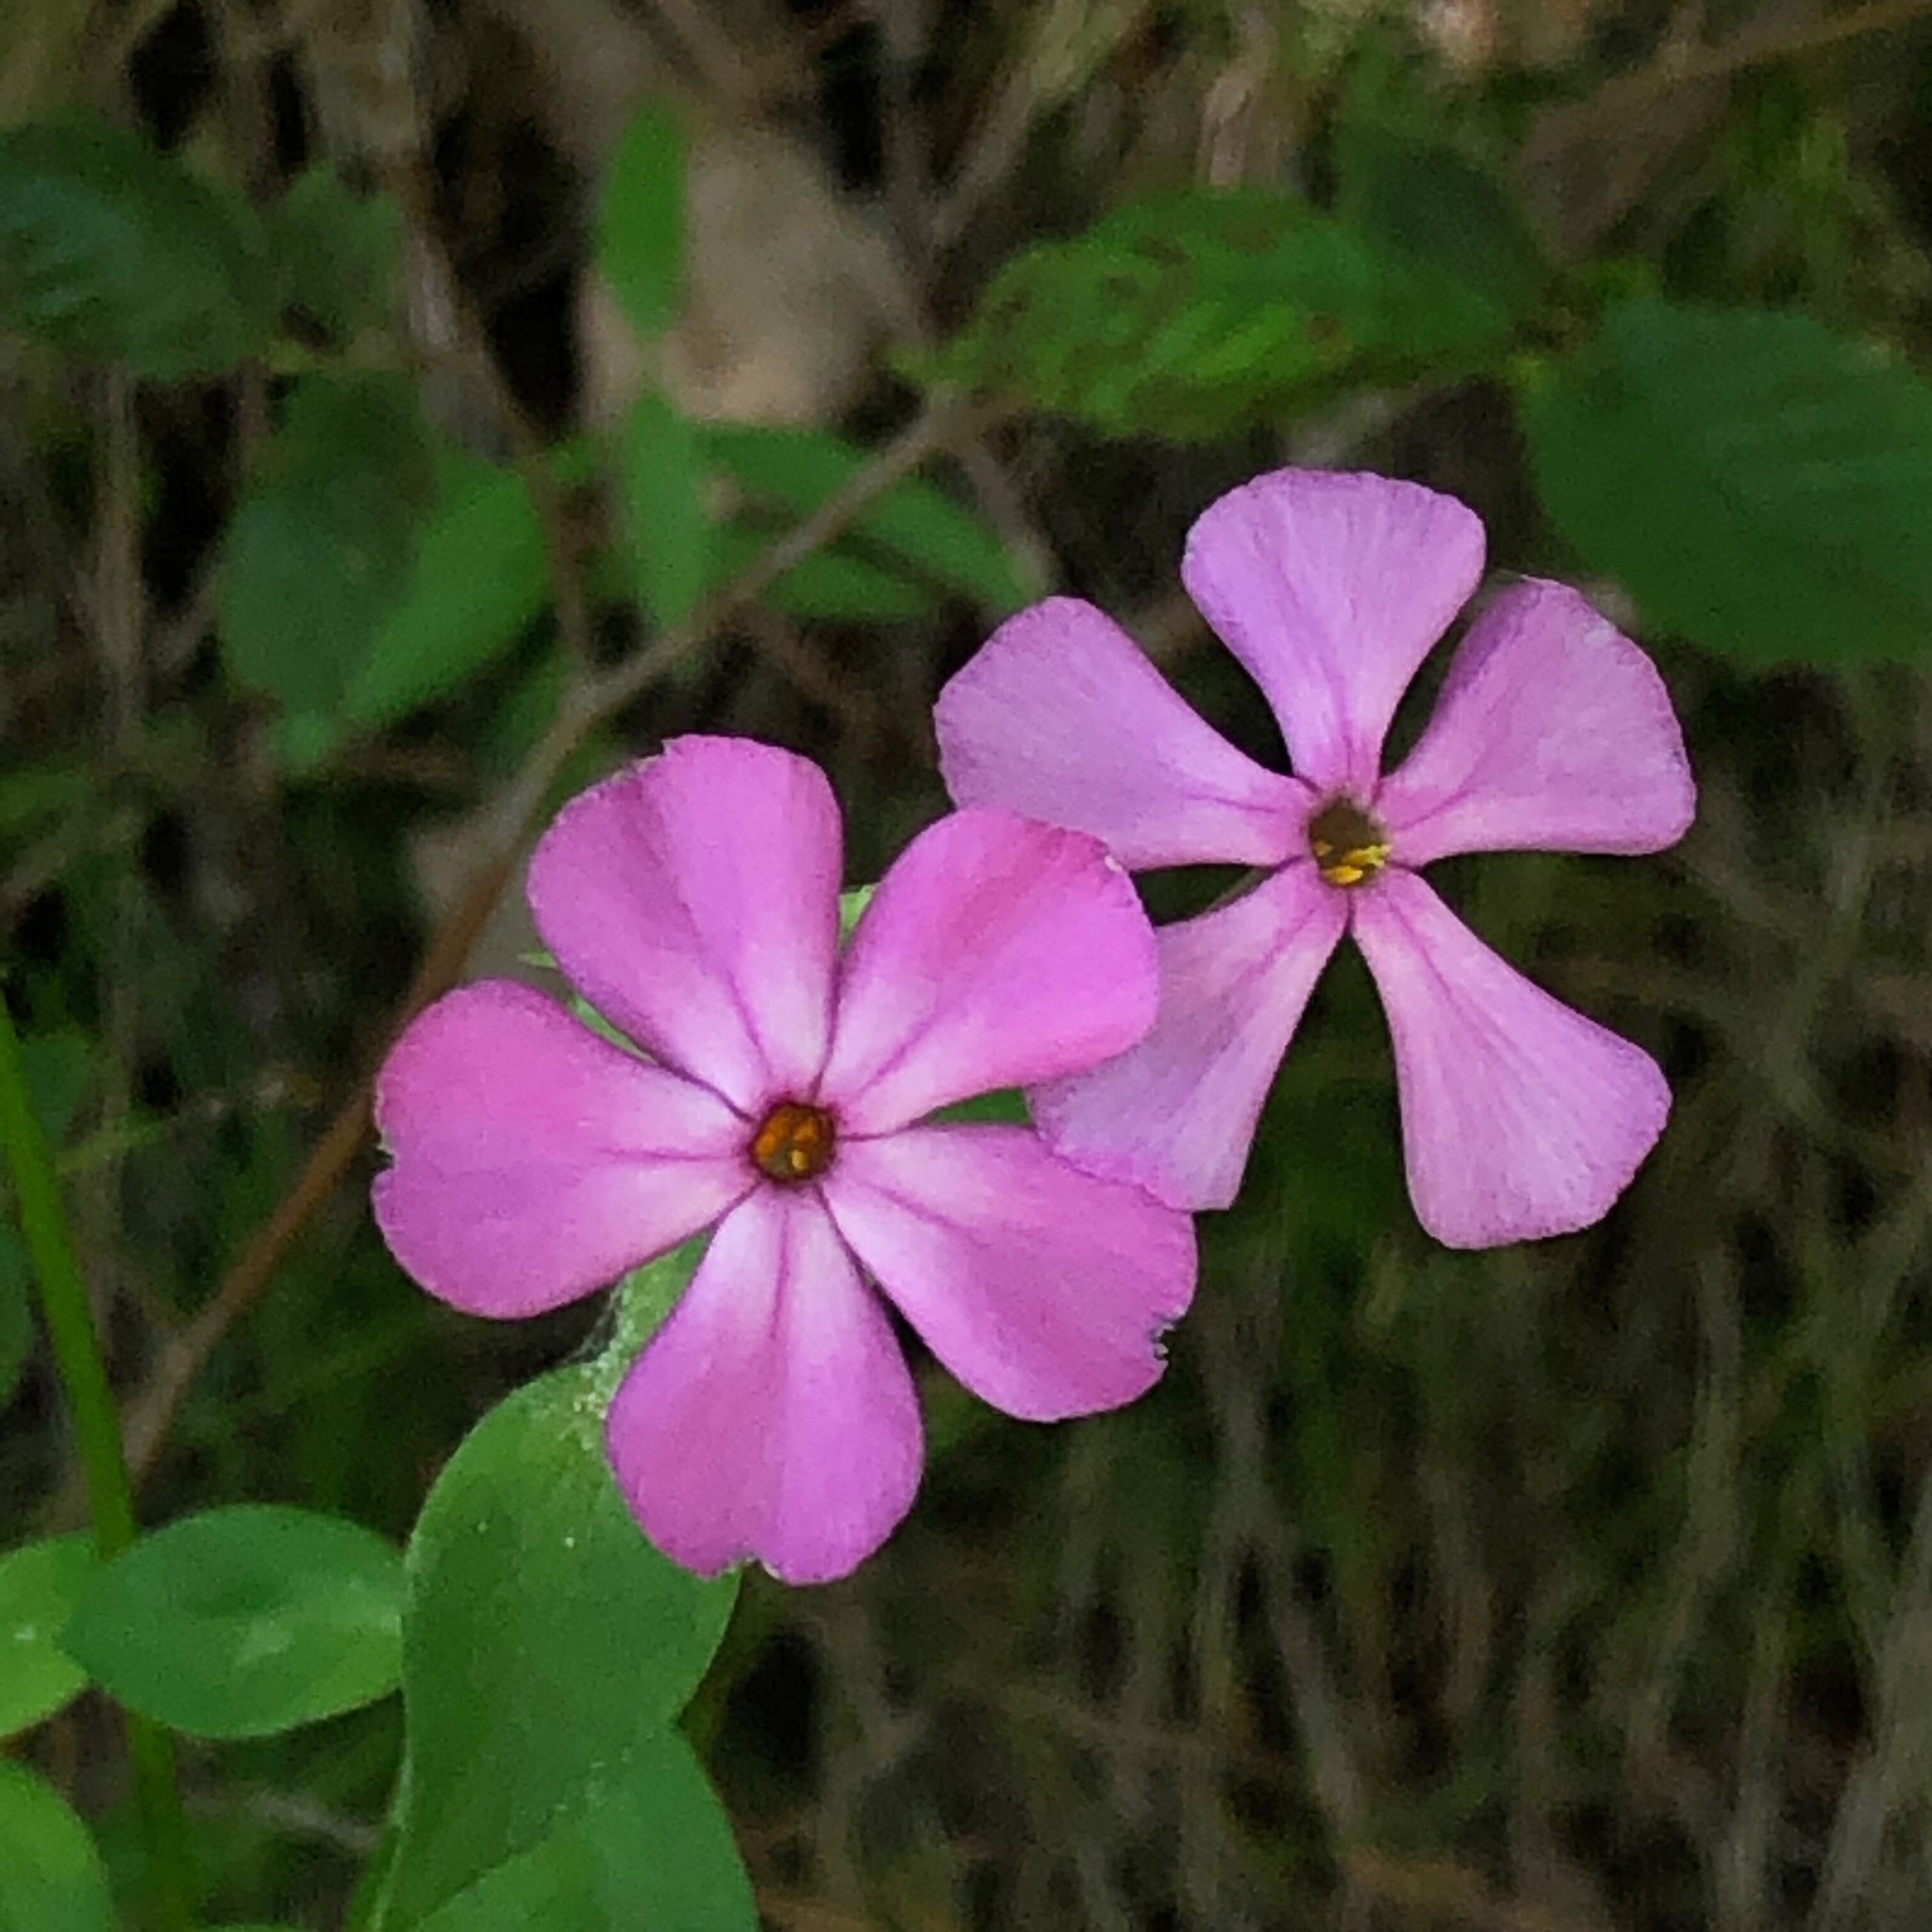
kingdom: Plantae
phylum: Tracheophyta
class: Magnoliopsida
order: Ericales
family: Polemoniaceae
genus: Phlox
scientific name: Phlox glaberrima
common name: Smooth phlox
